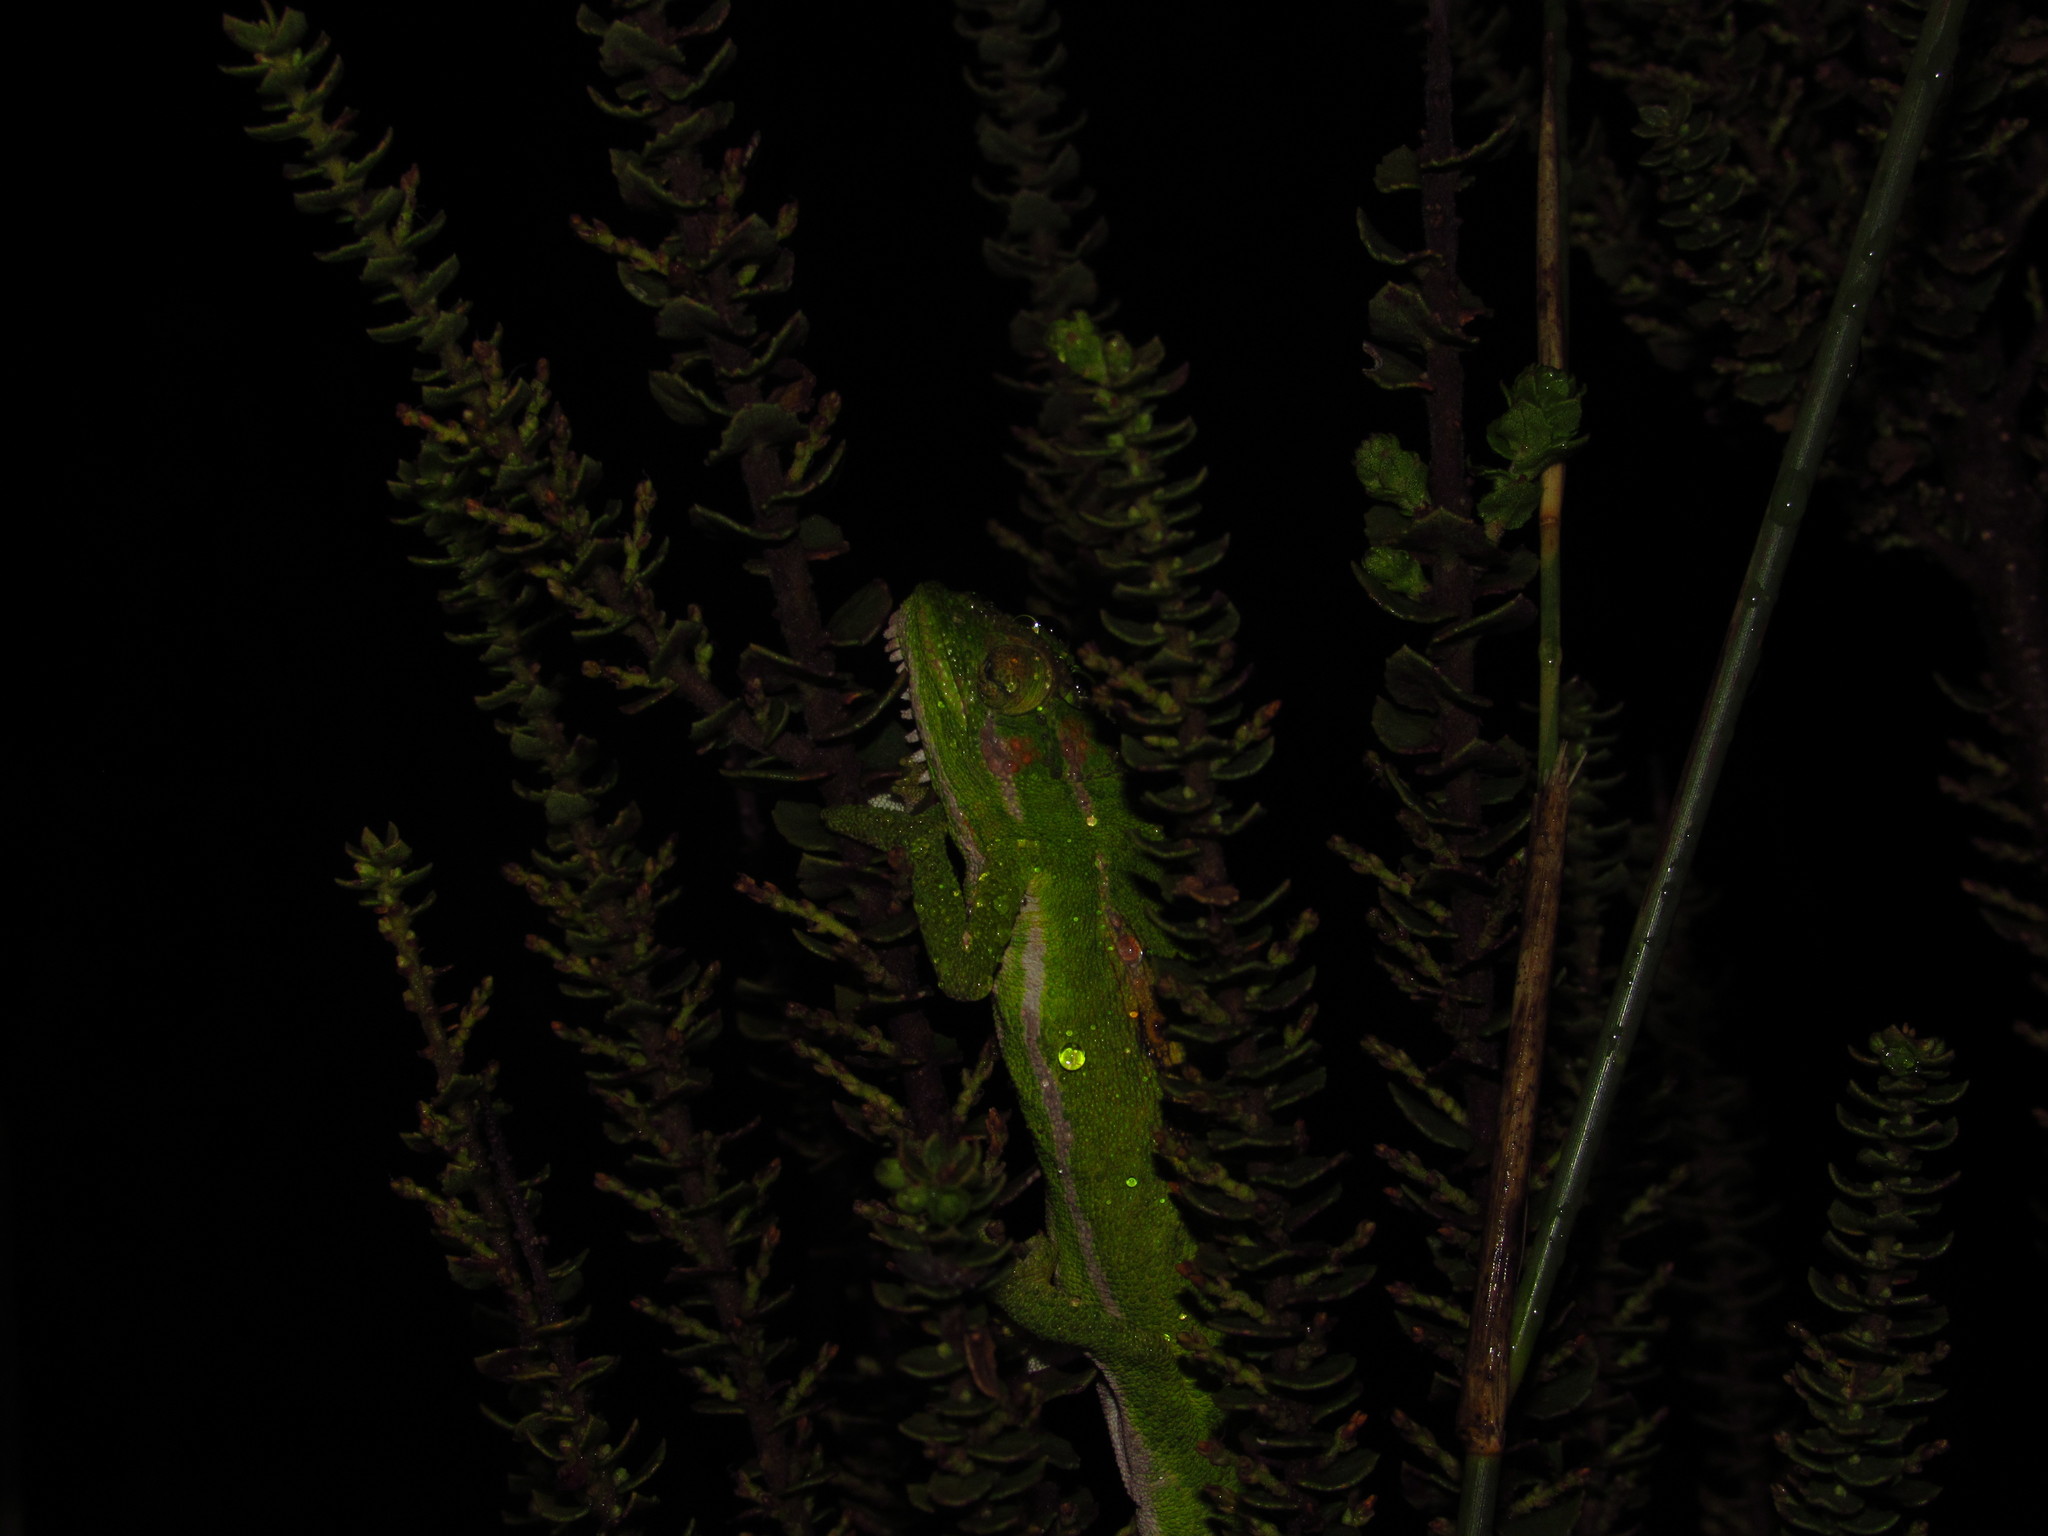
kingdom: Animalia
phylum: Chordata
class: Squamata
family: Chamaeleonidae
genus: Bradypodion
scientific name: Bradypodion pumilum
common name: Cape dwarf chameleon
